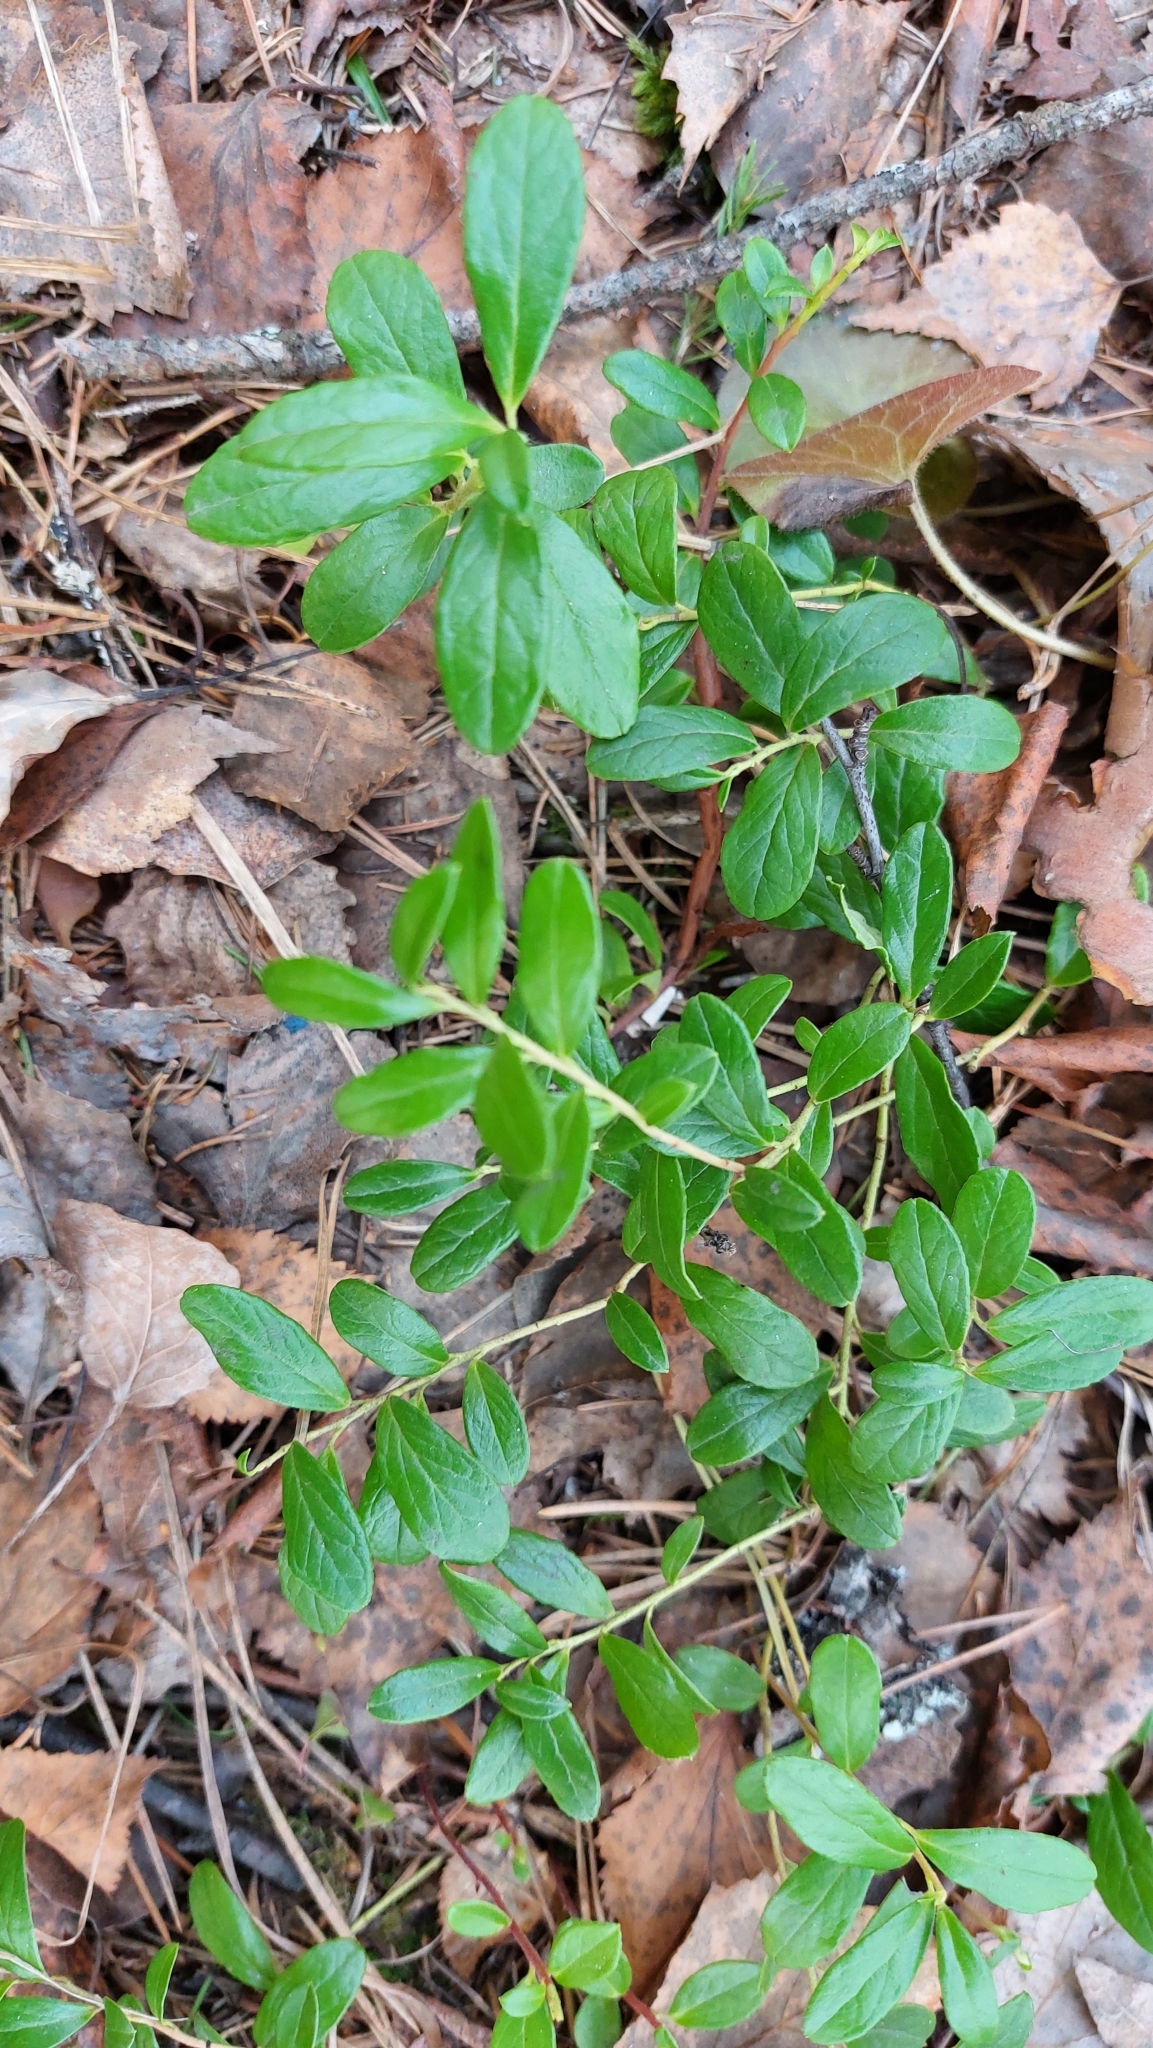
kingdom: Plantae
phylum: Tracheophyta
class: Magnoliopsida
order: Ericales
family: Ericaceae
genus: Vaccinium
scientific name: Vaccinium vitis-idaea
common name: Cowberry
